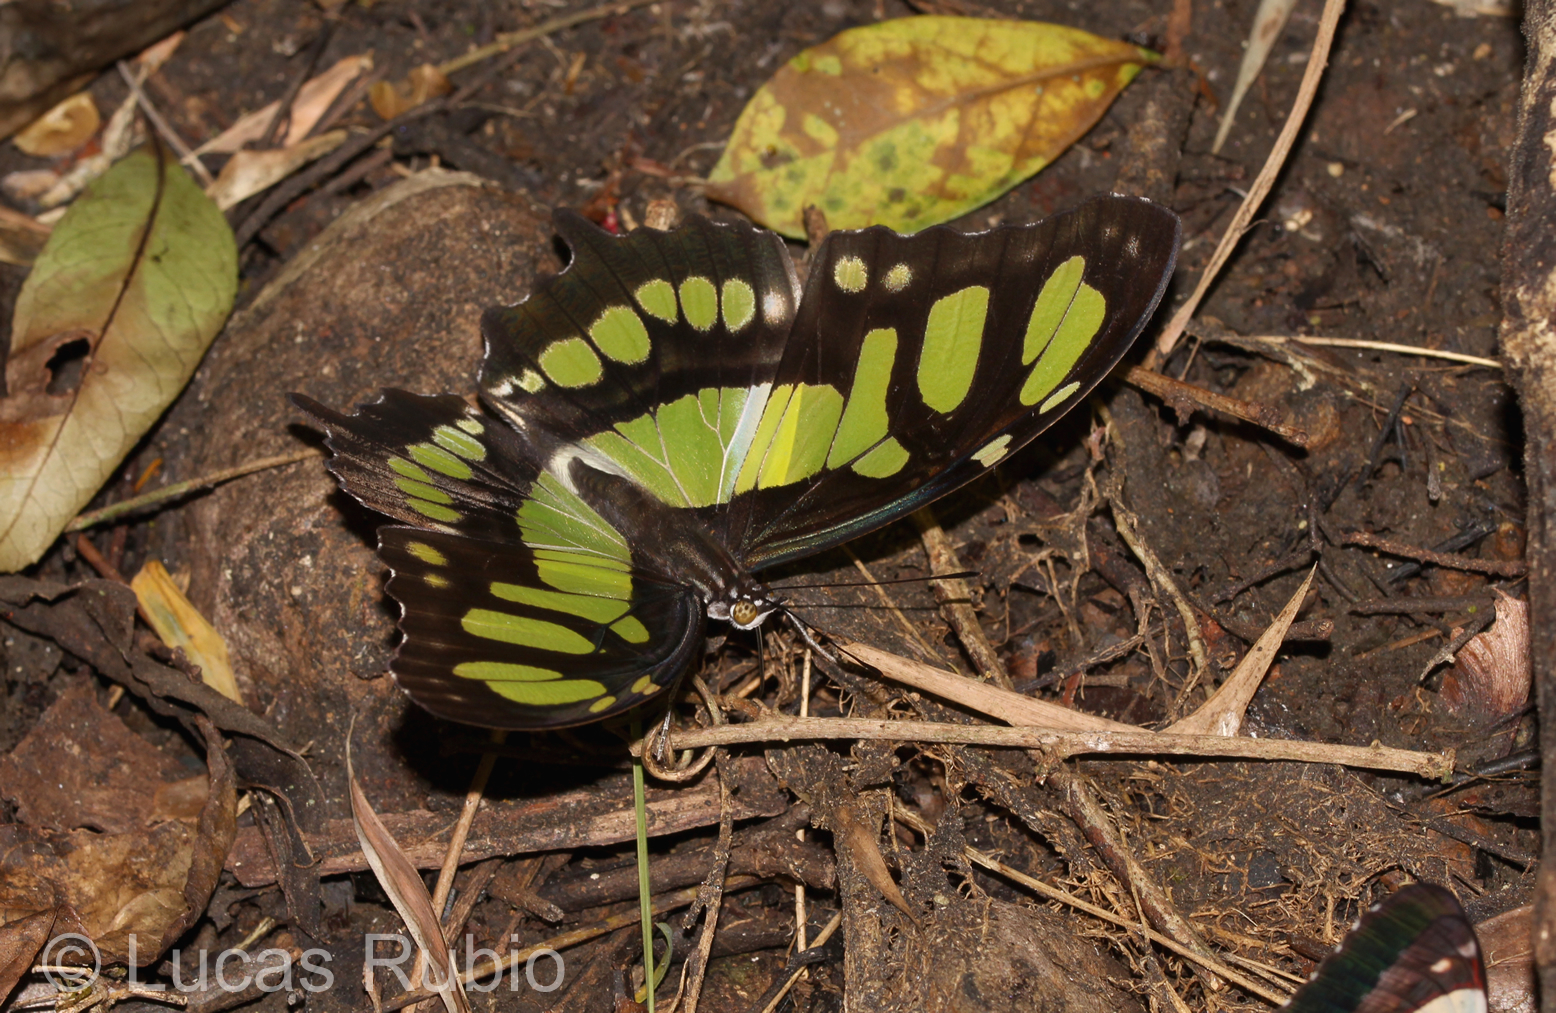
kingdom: Animalia
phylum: Arthropoda
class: Insecta
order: Lepidoptera
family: Nymphalidae
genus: Siproeta
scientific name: Siproeta stelenes
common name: Malachite
